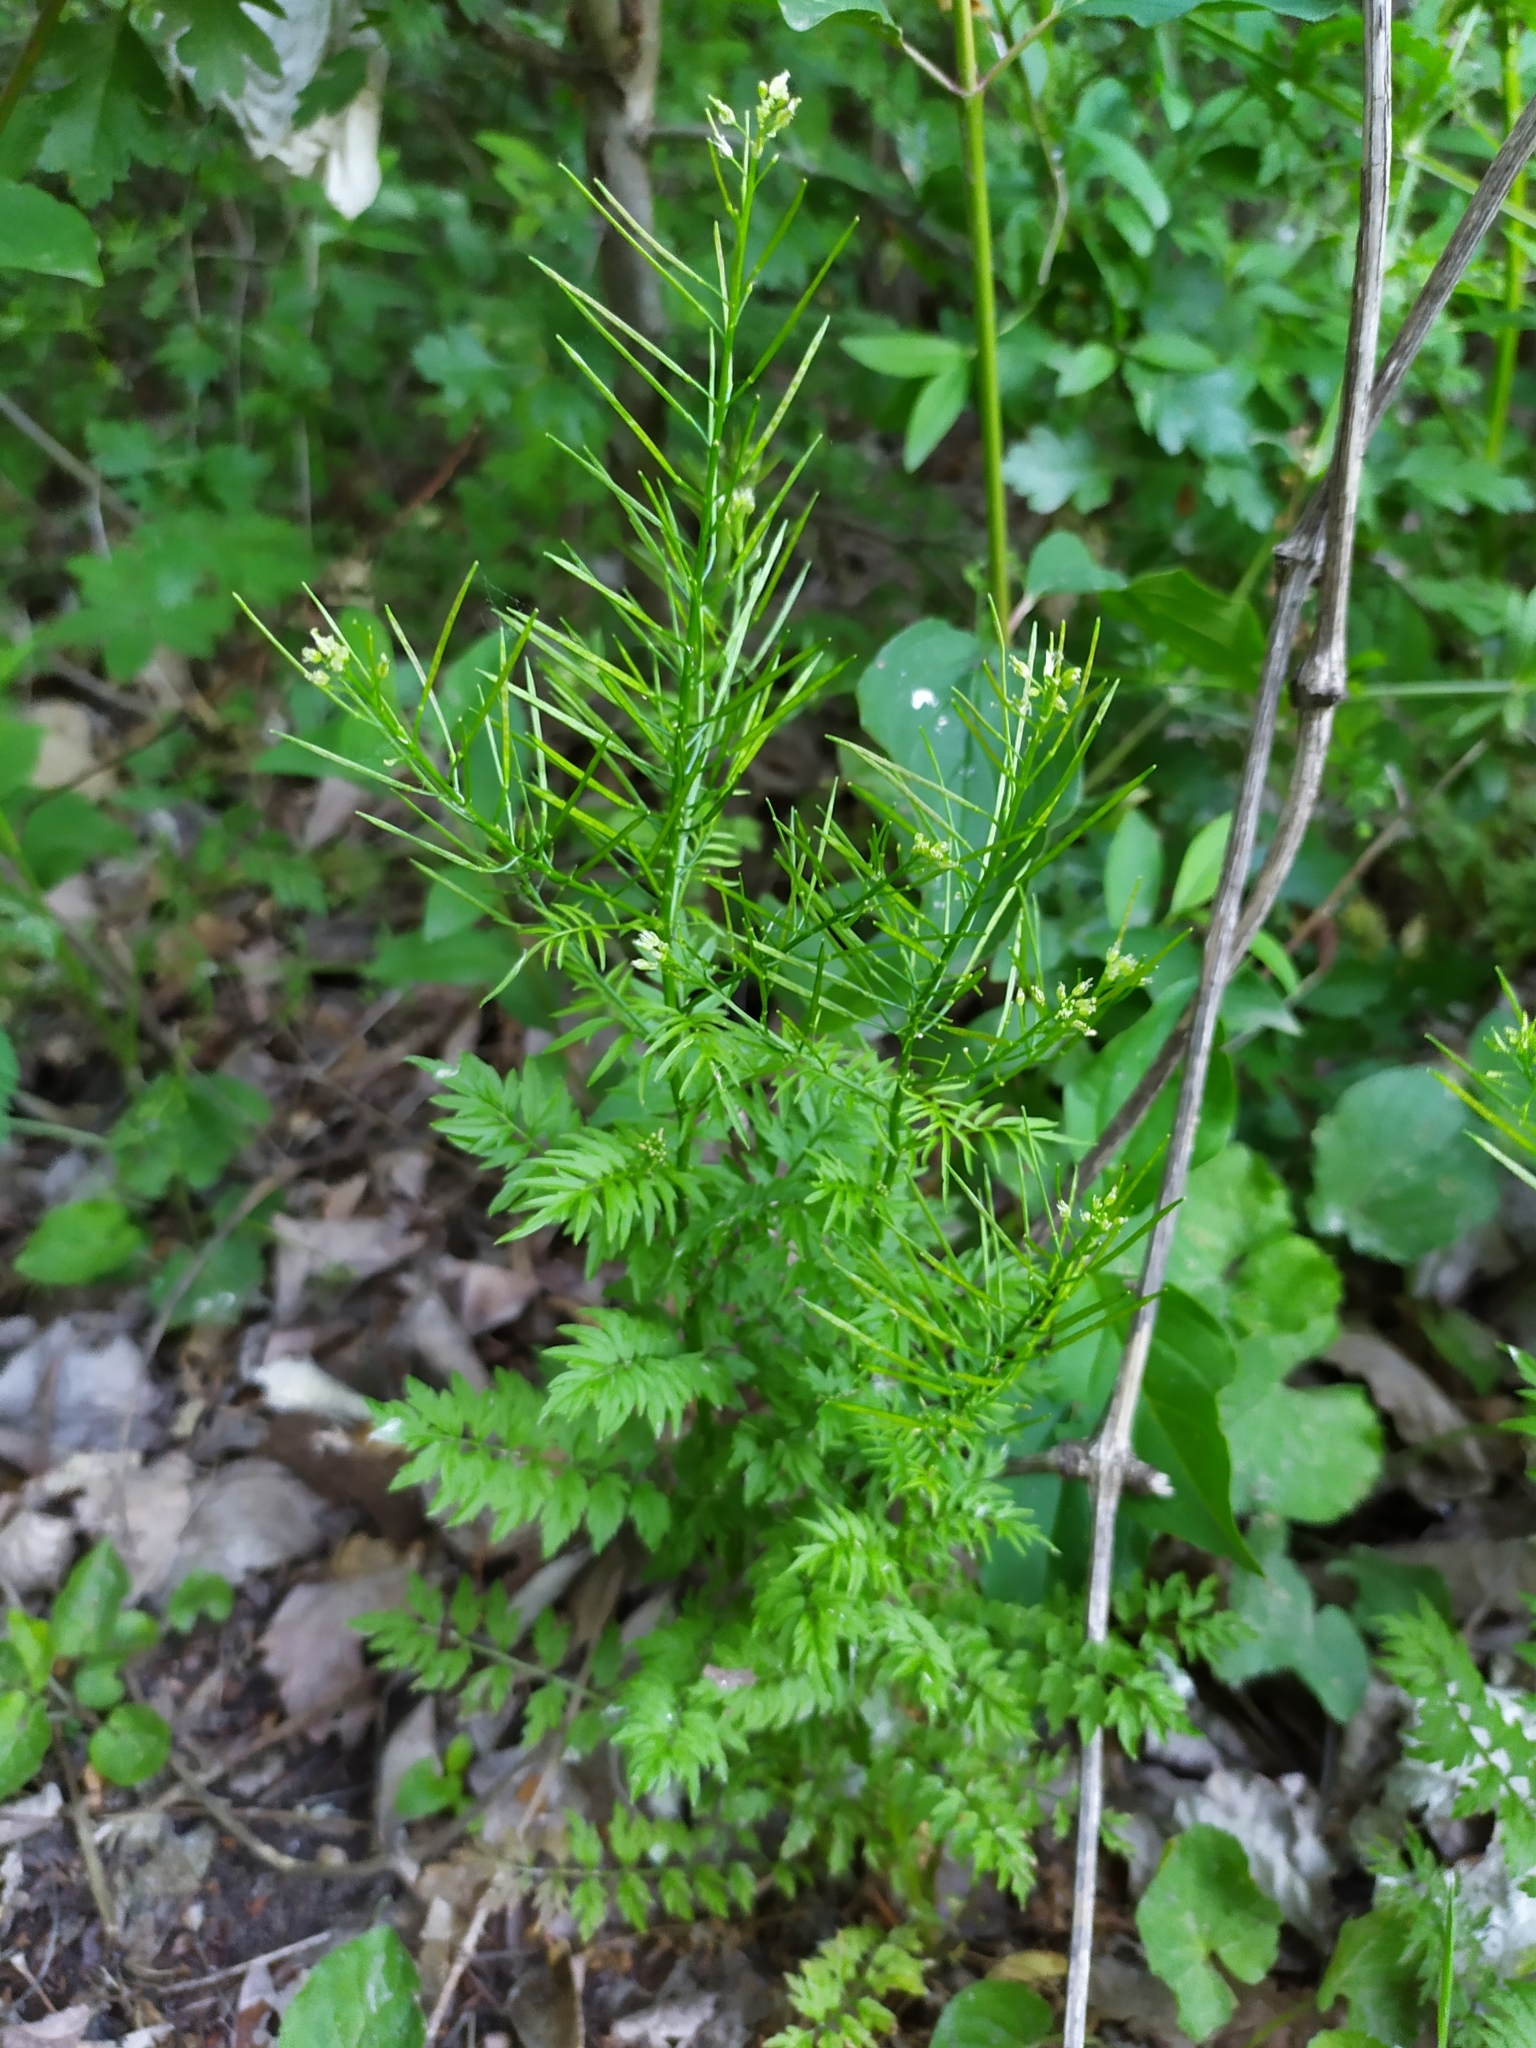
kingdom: Plantae
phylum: Tracheophyta
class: Magnoliopsida
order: Brassicales
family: Brassicaceae
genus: Cardamine
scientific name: Cardamine impatiens
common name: Narrow-leaved bitter-cress
